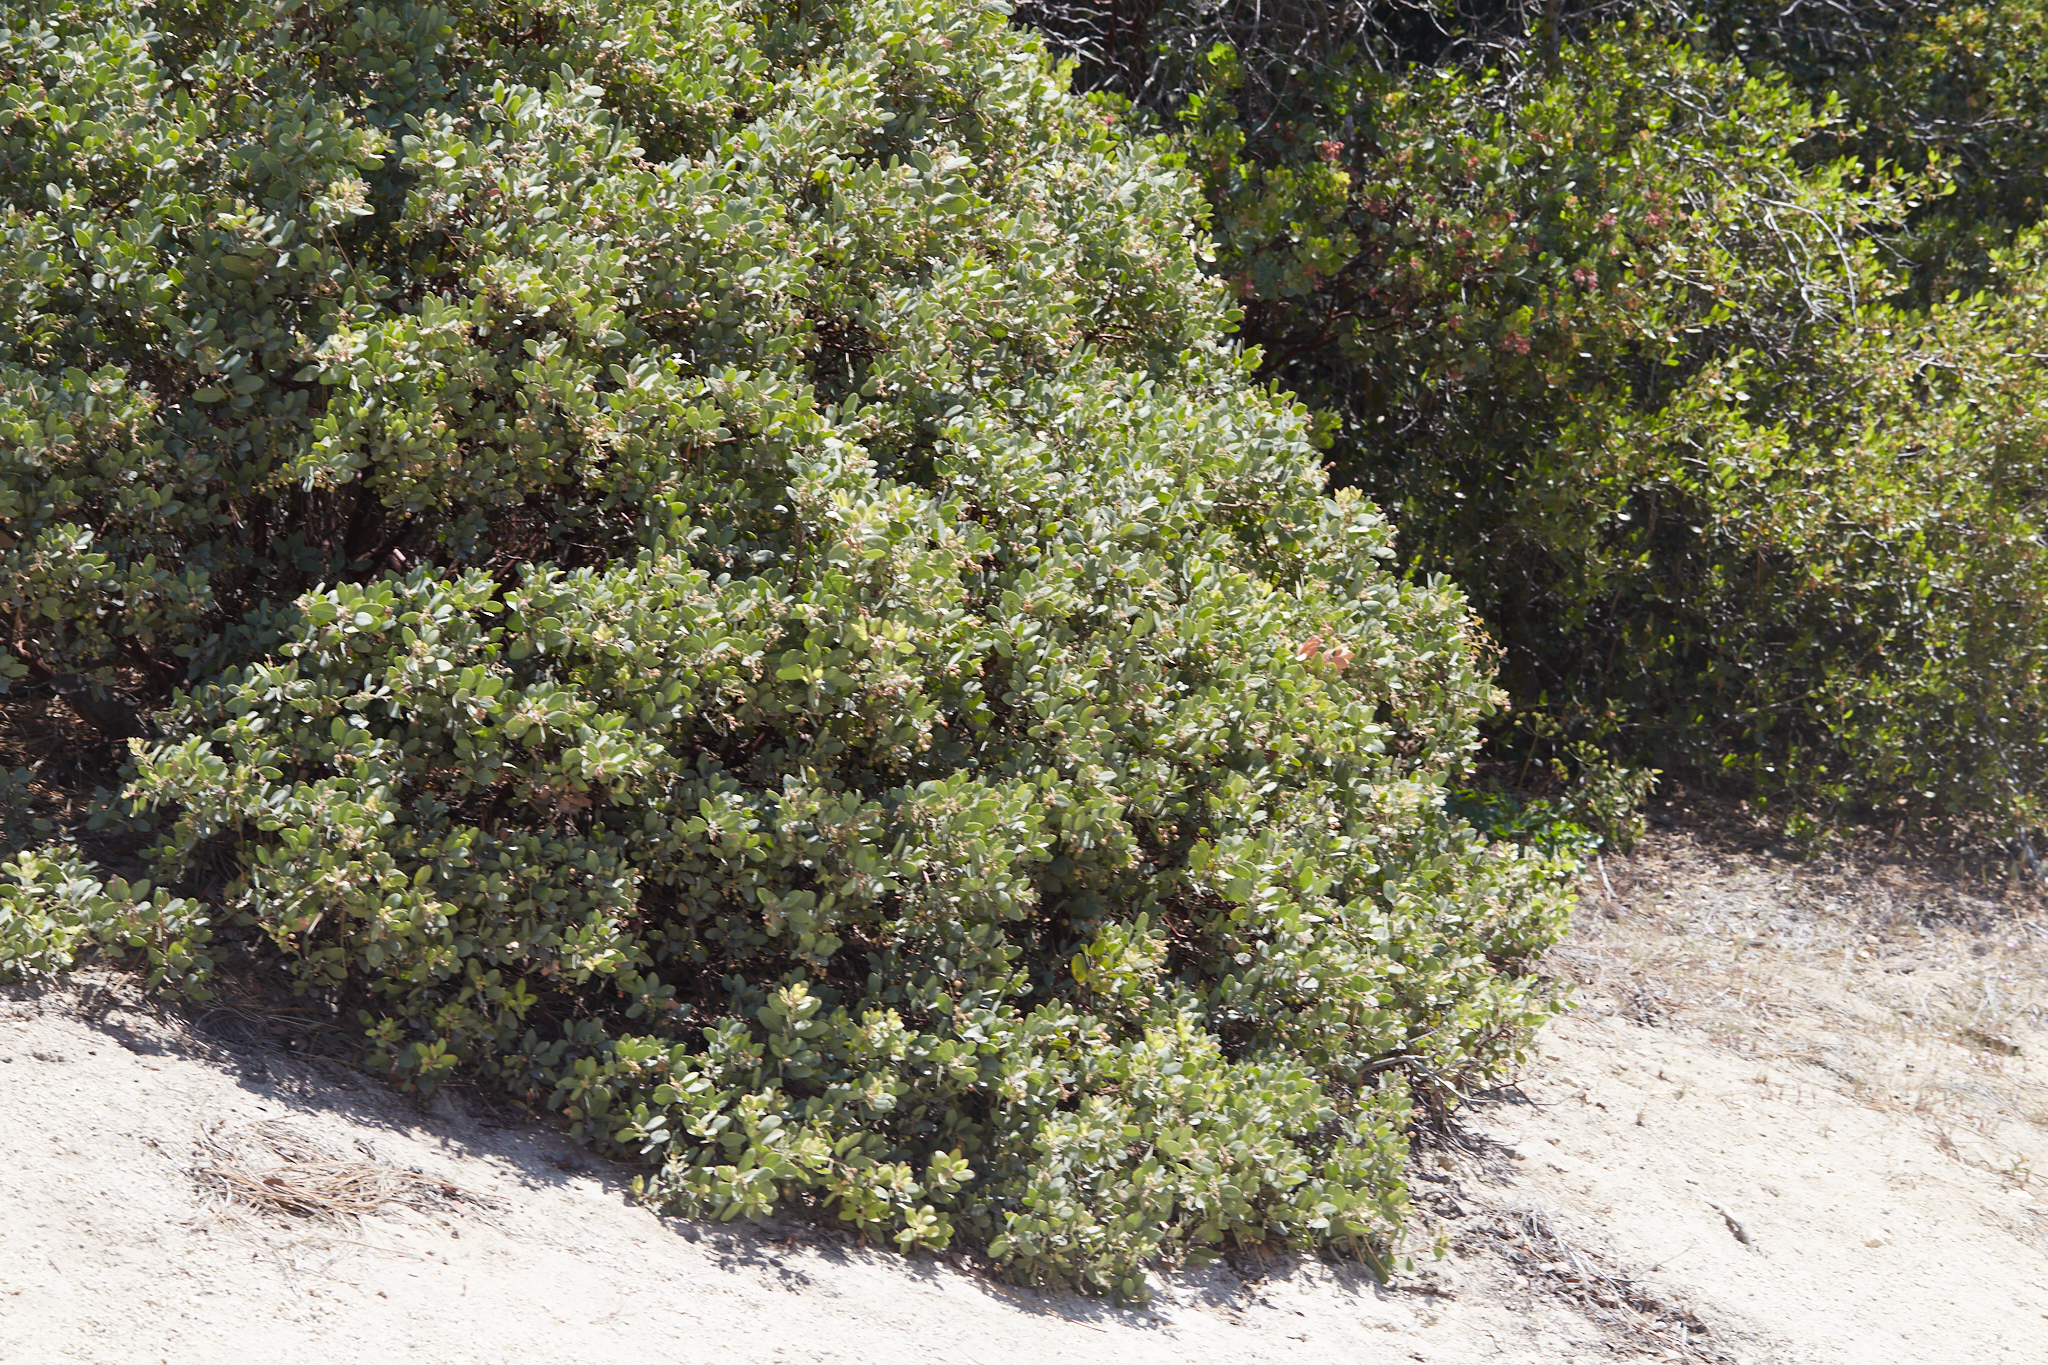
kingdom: Plantae
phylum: Tracheophyta
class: Magnoliopsida
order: Ericales
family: Ericaceae
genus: Arctostaphylos
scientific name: Arctostaphylos pringlei
